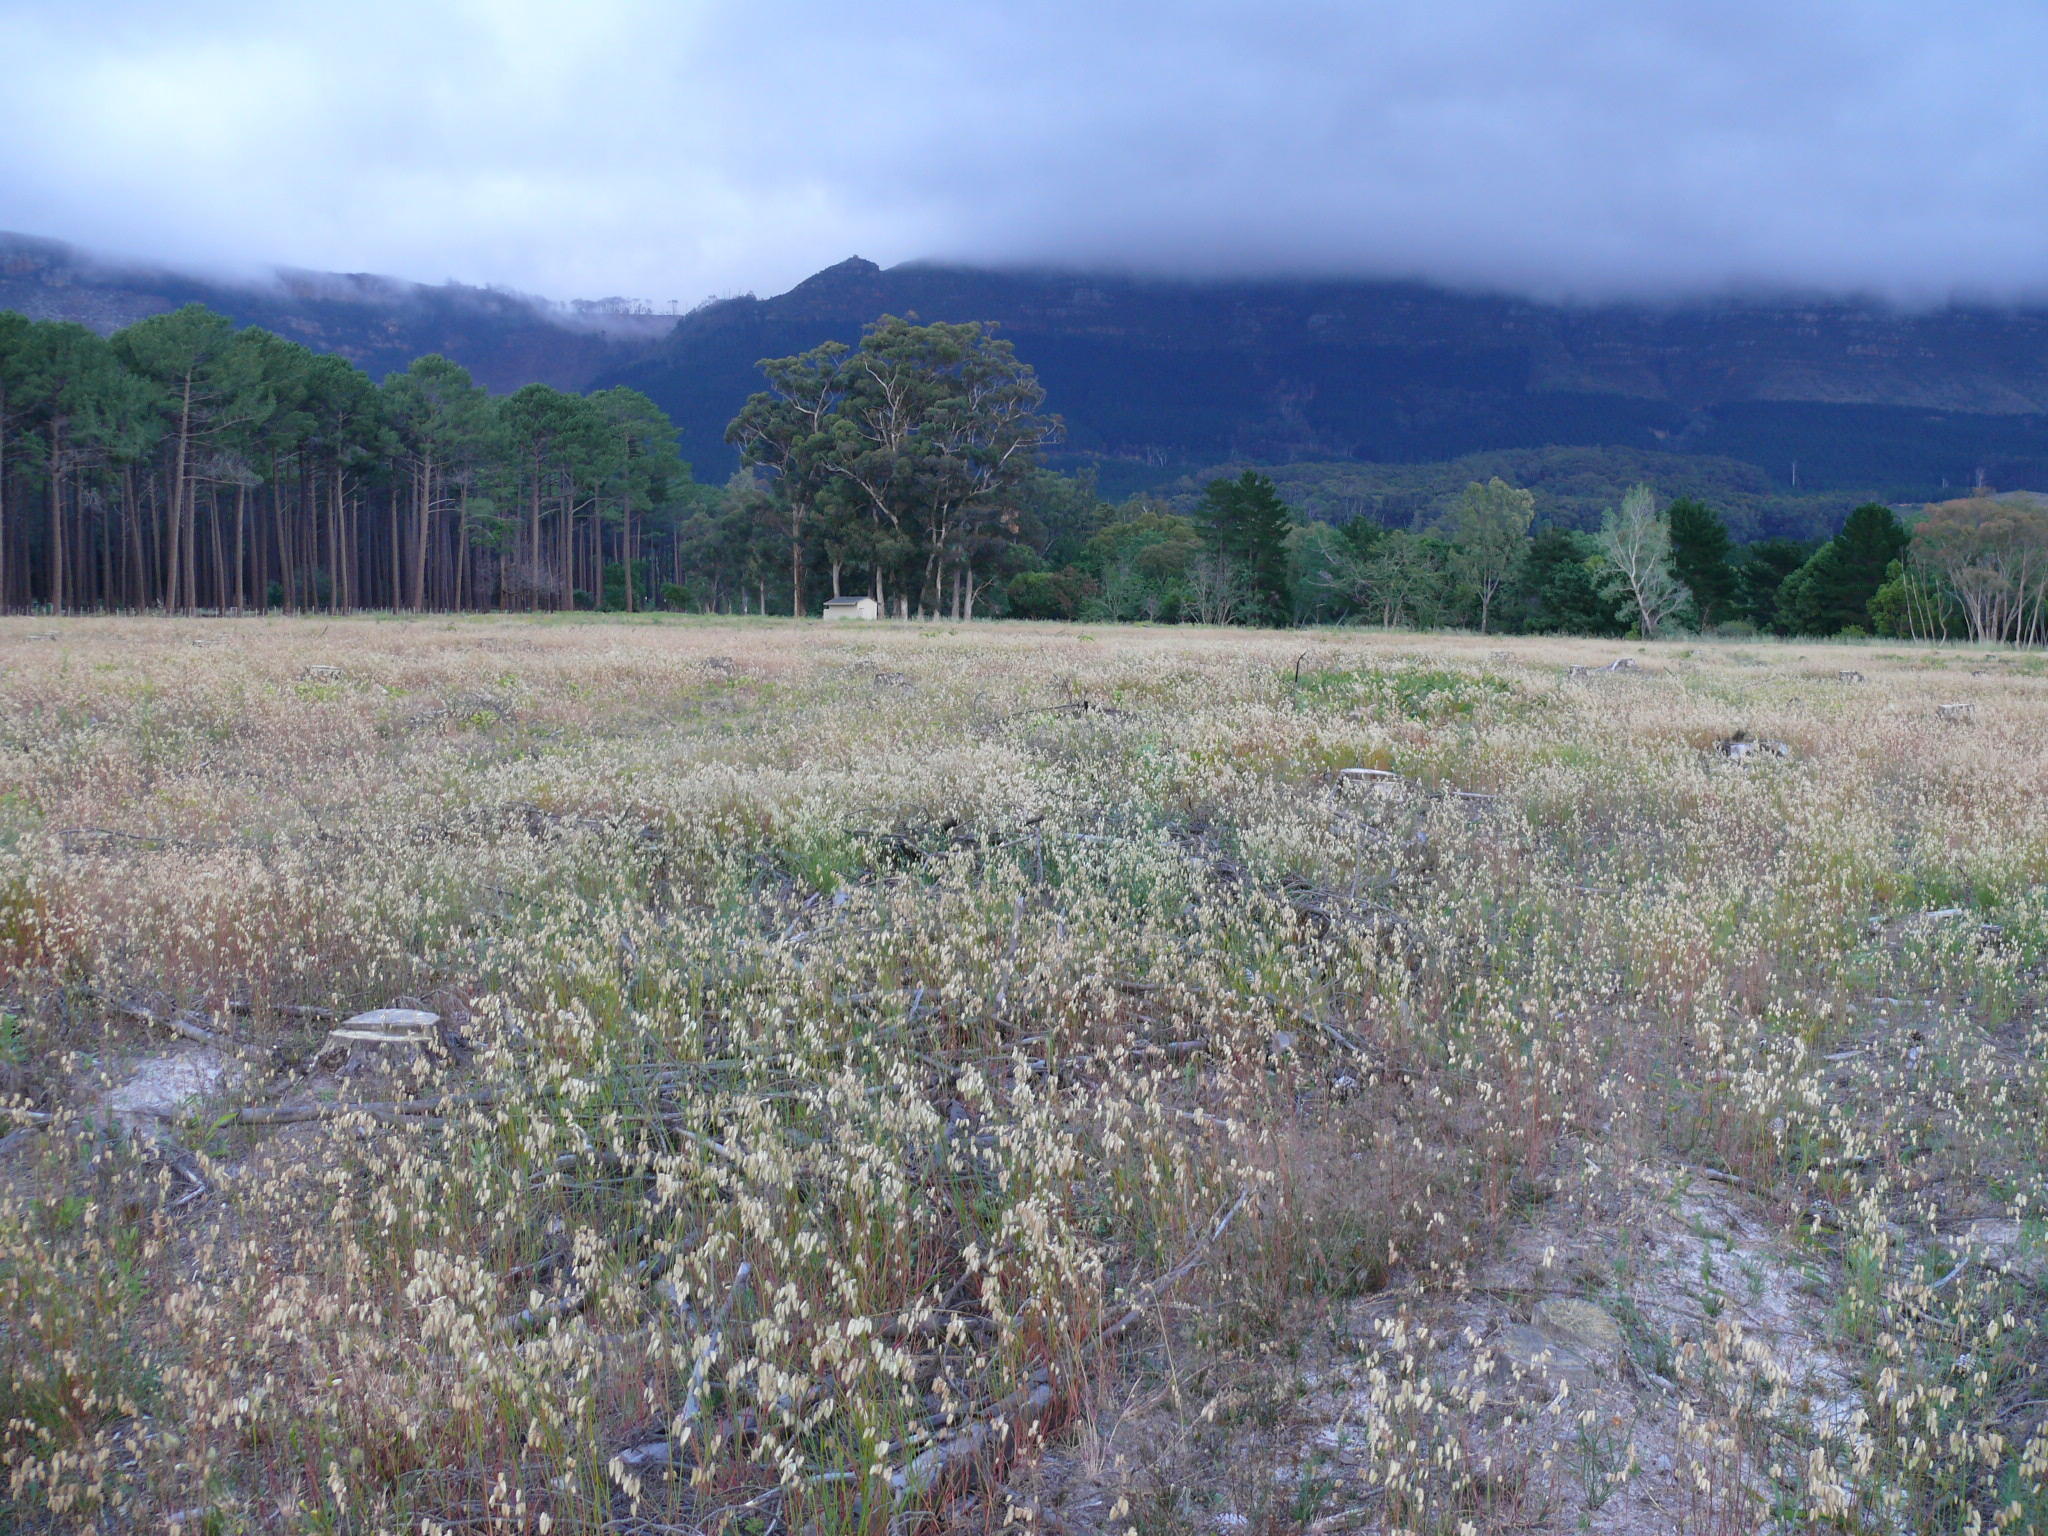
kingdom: Plantae
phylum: Tracheophyta
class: Liliopsida
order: Poales
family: Poaceae
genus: Briza
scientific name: Briza maxima
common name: Big quakinggrass
